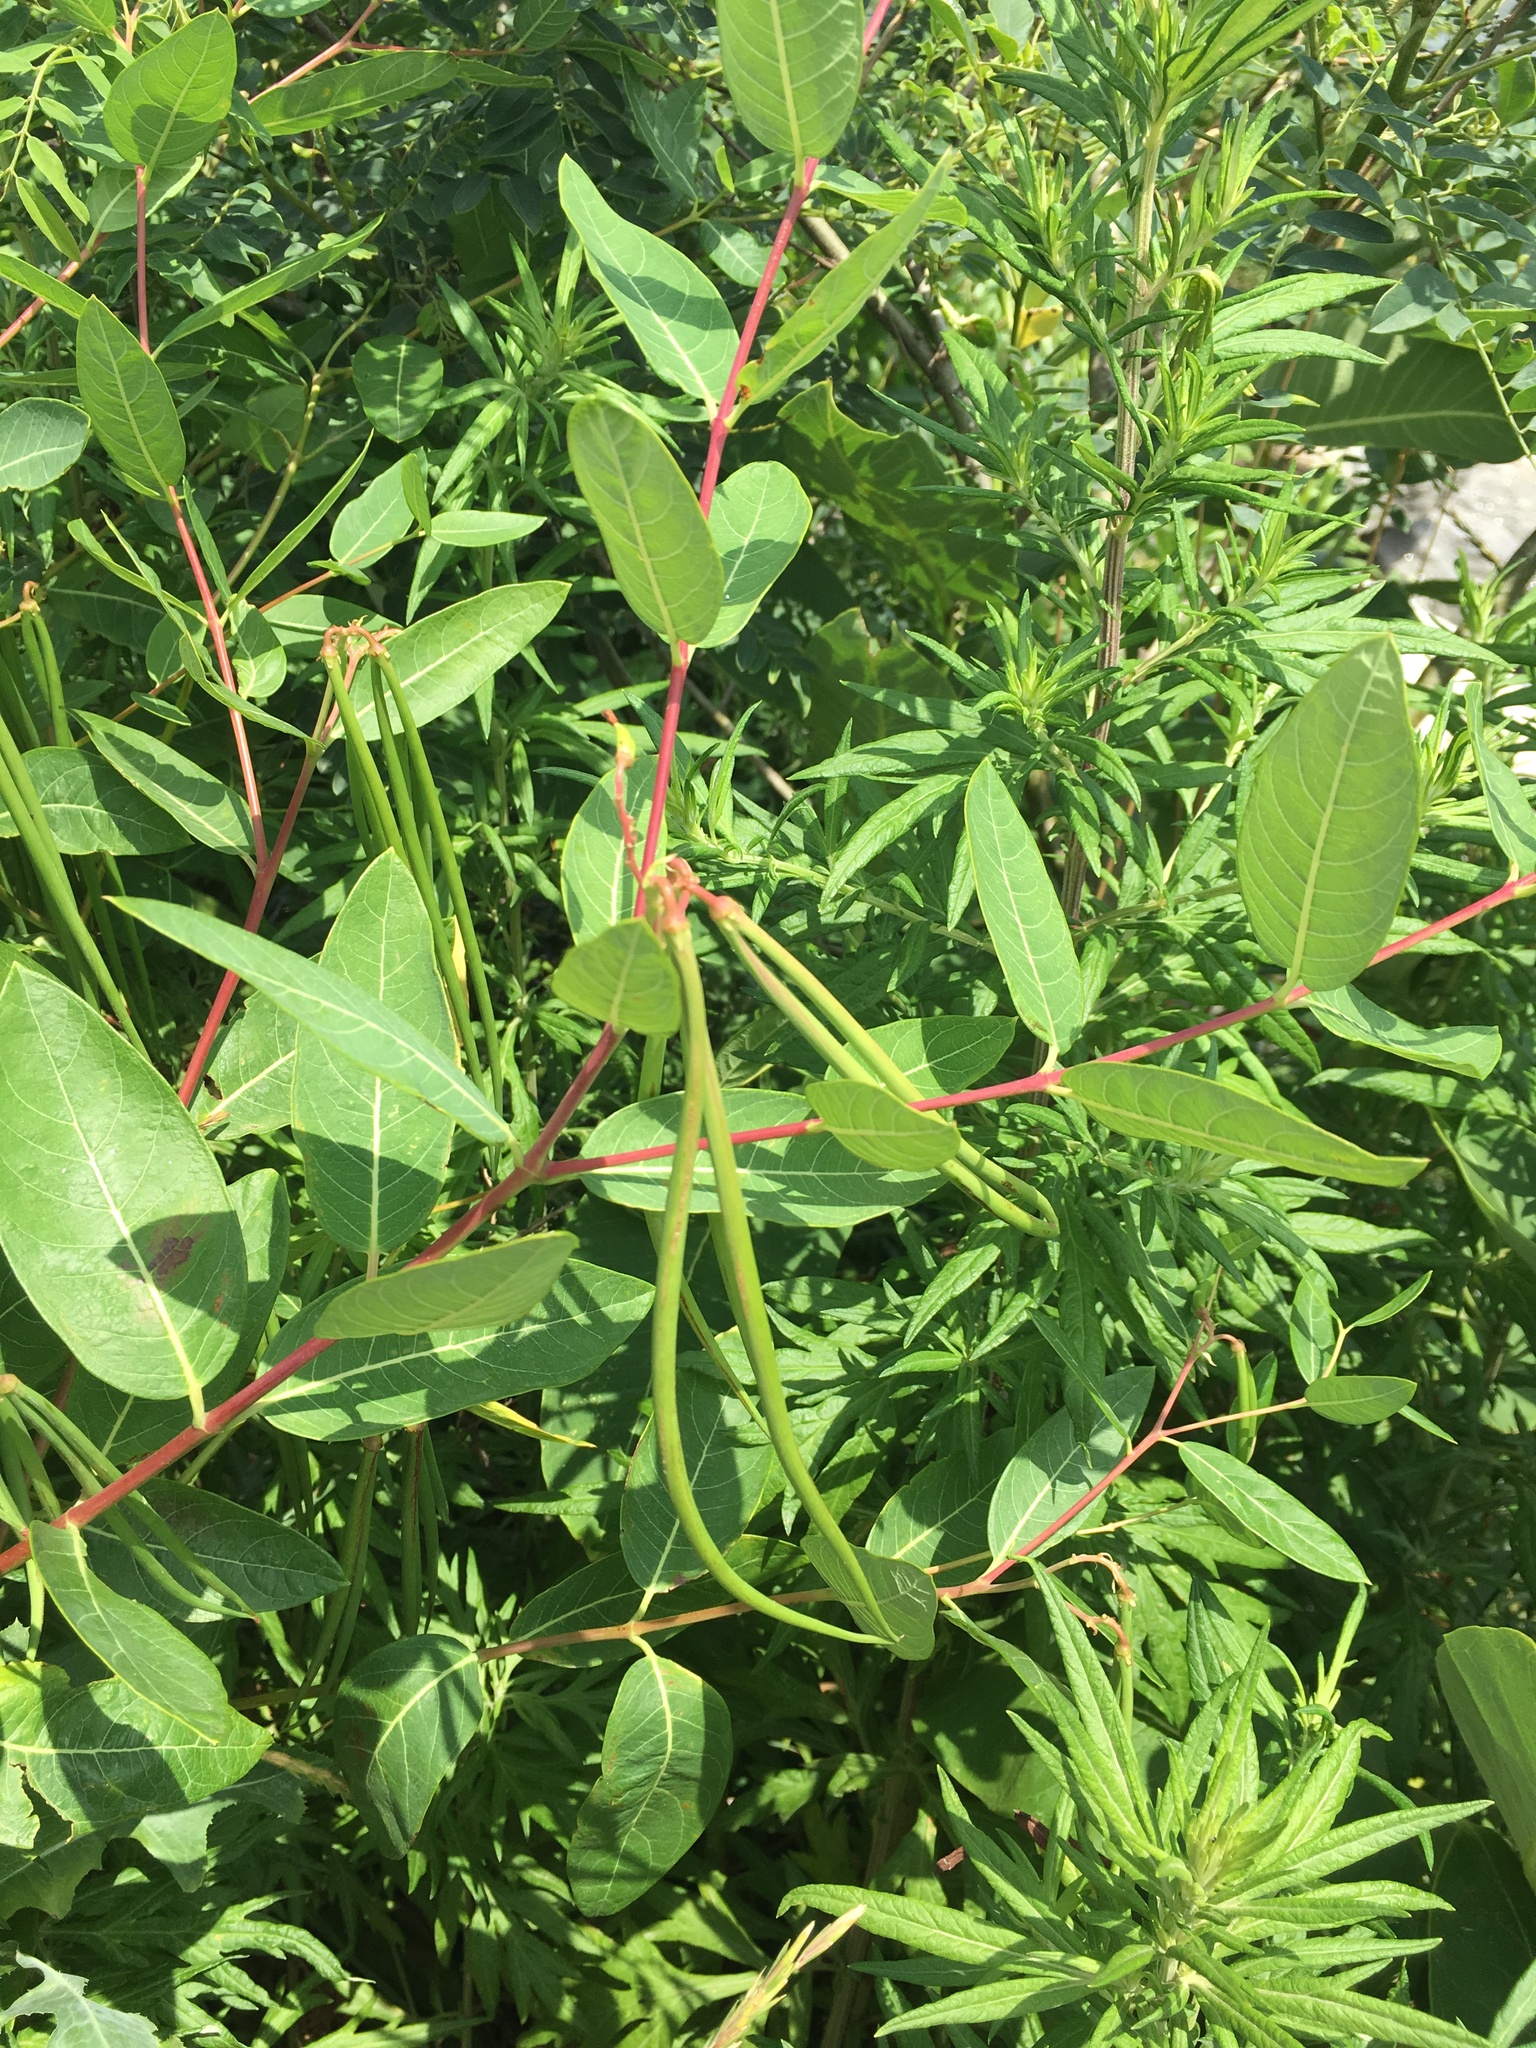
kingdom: Plantae
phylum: Tracheophyta
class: Magnoliopsida
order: Gentianales
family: Apocynaceae
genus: Apocynum
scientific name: Apocynum cannabinum
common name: Hemp dogbane
